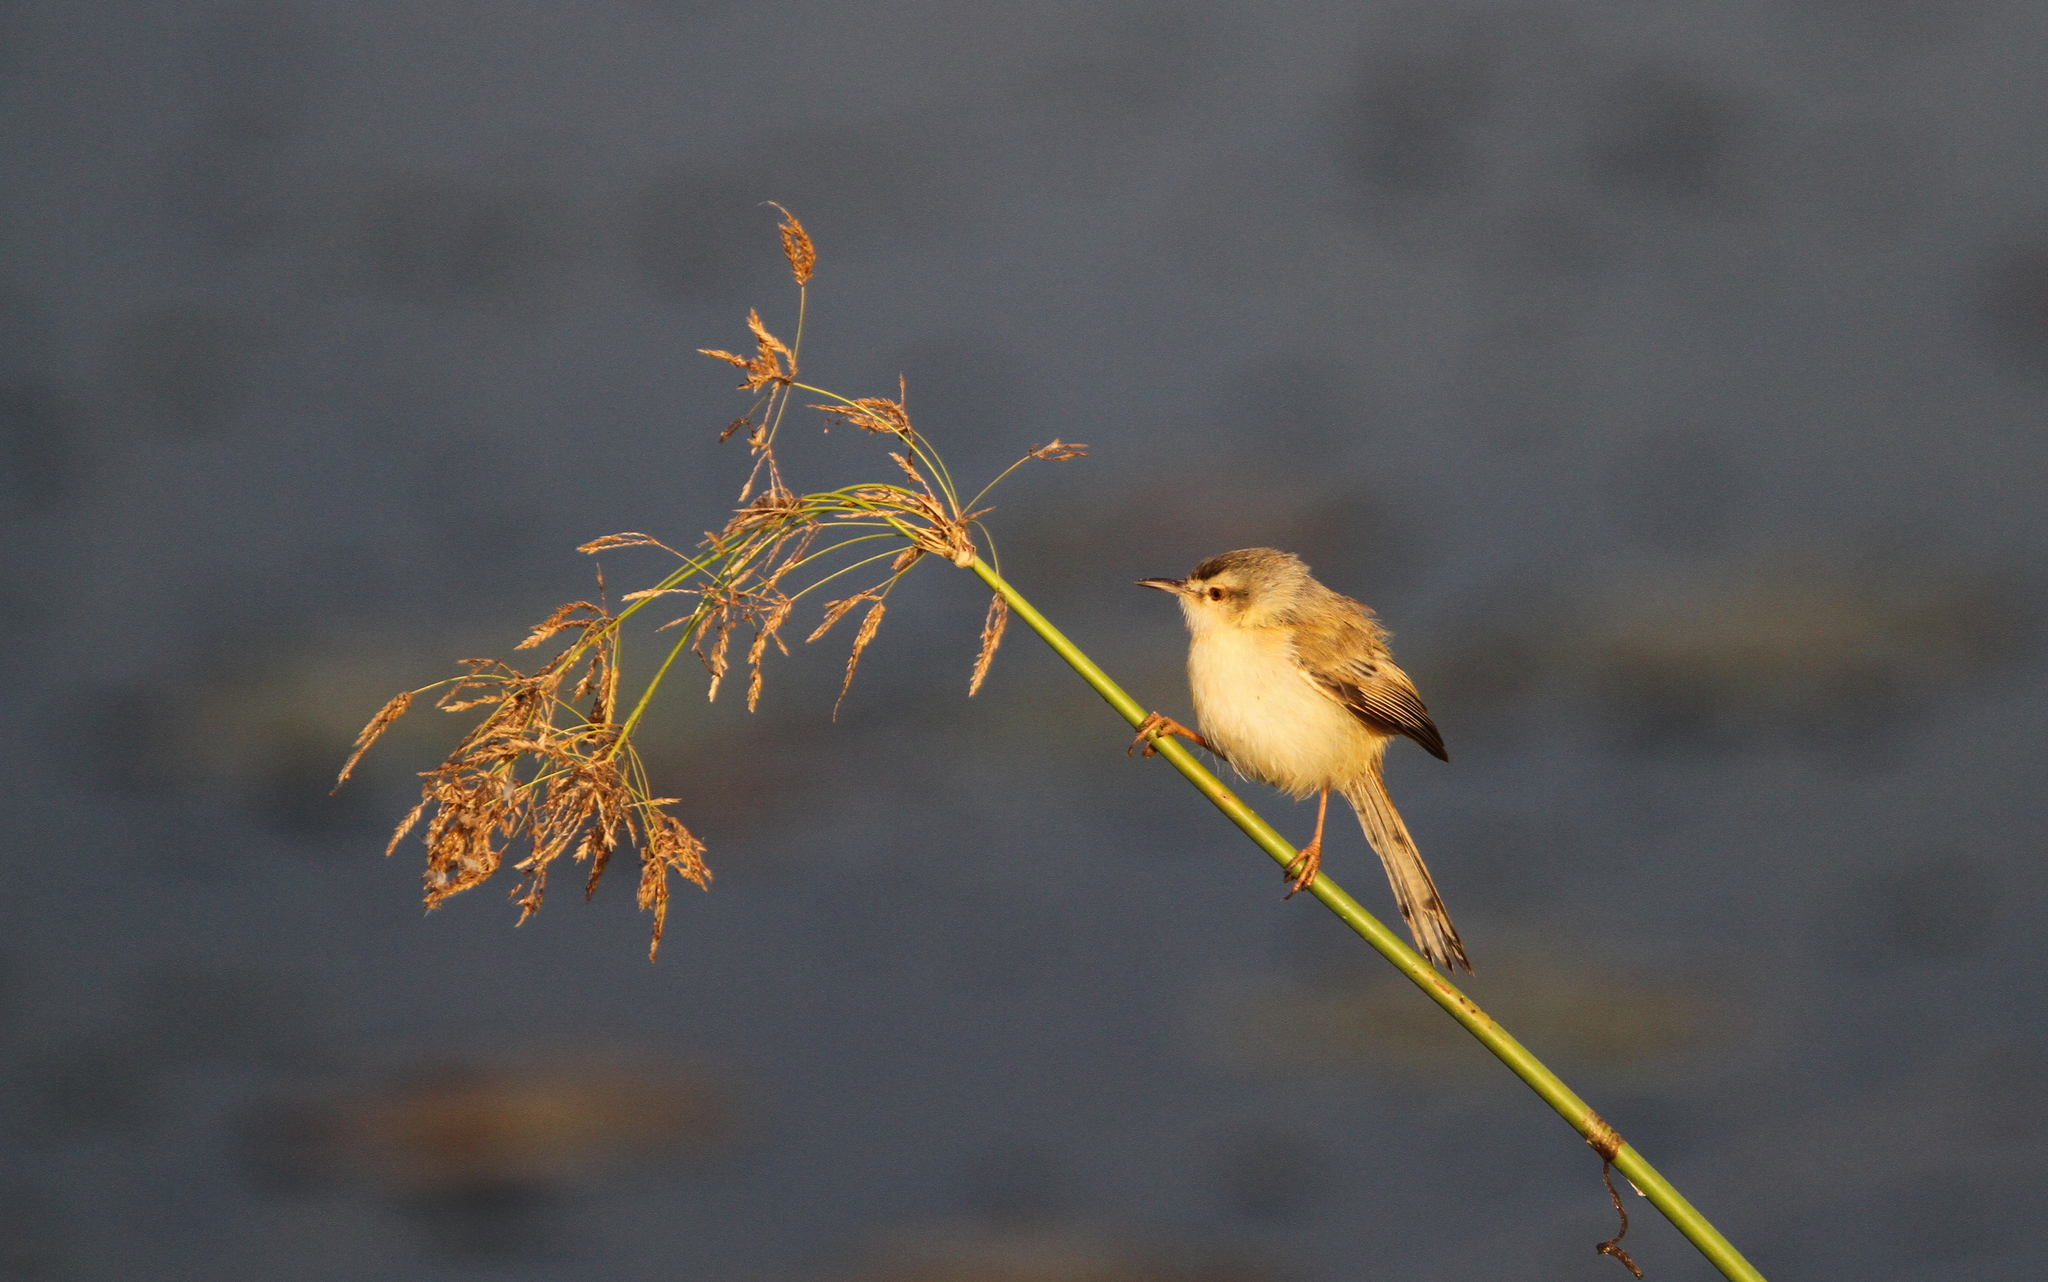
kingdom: Animalia
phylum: Chordata
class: Aves
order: Passeriformes
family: Cisticolidae
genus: Prinia
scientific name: Prinia fluviatilis
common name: River prinia
